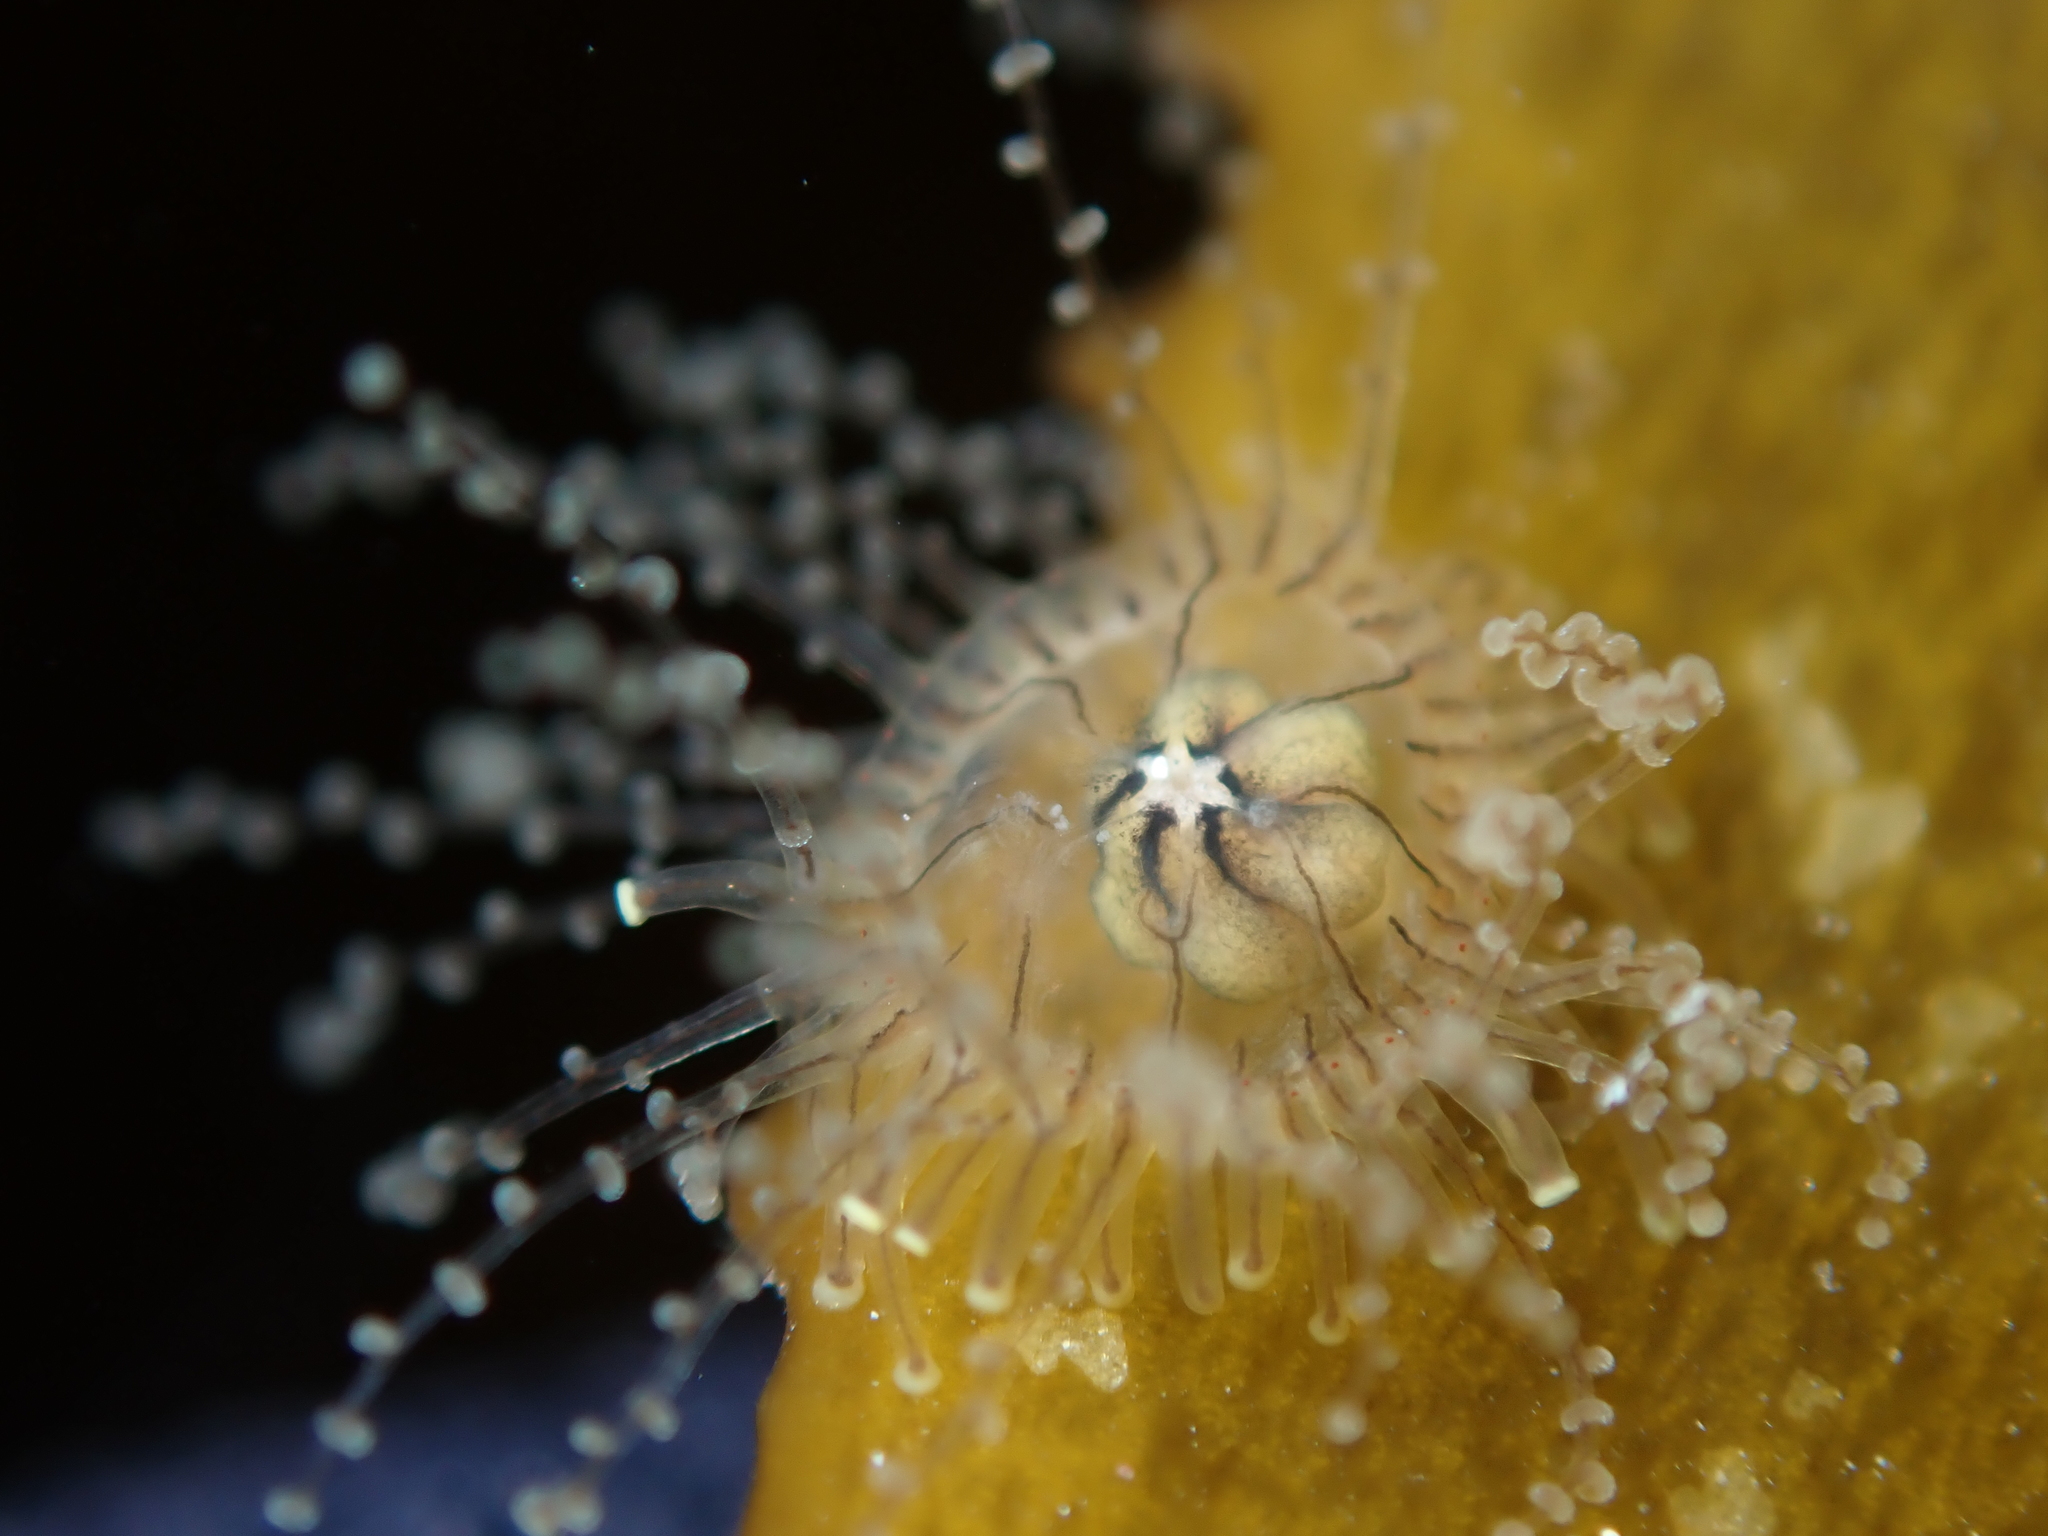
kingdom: Animalia
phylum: Cnidaria
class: Hydrozoa
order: Anthoathecata
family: Cladonematidae
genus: Staurocladia
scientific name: Staurocladia wellingtoni
